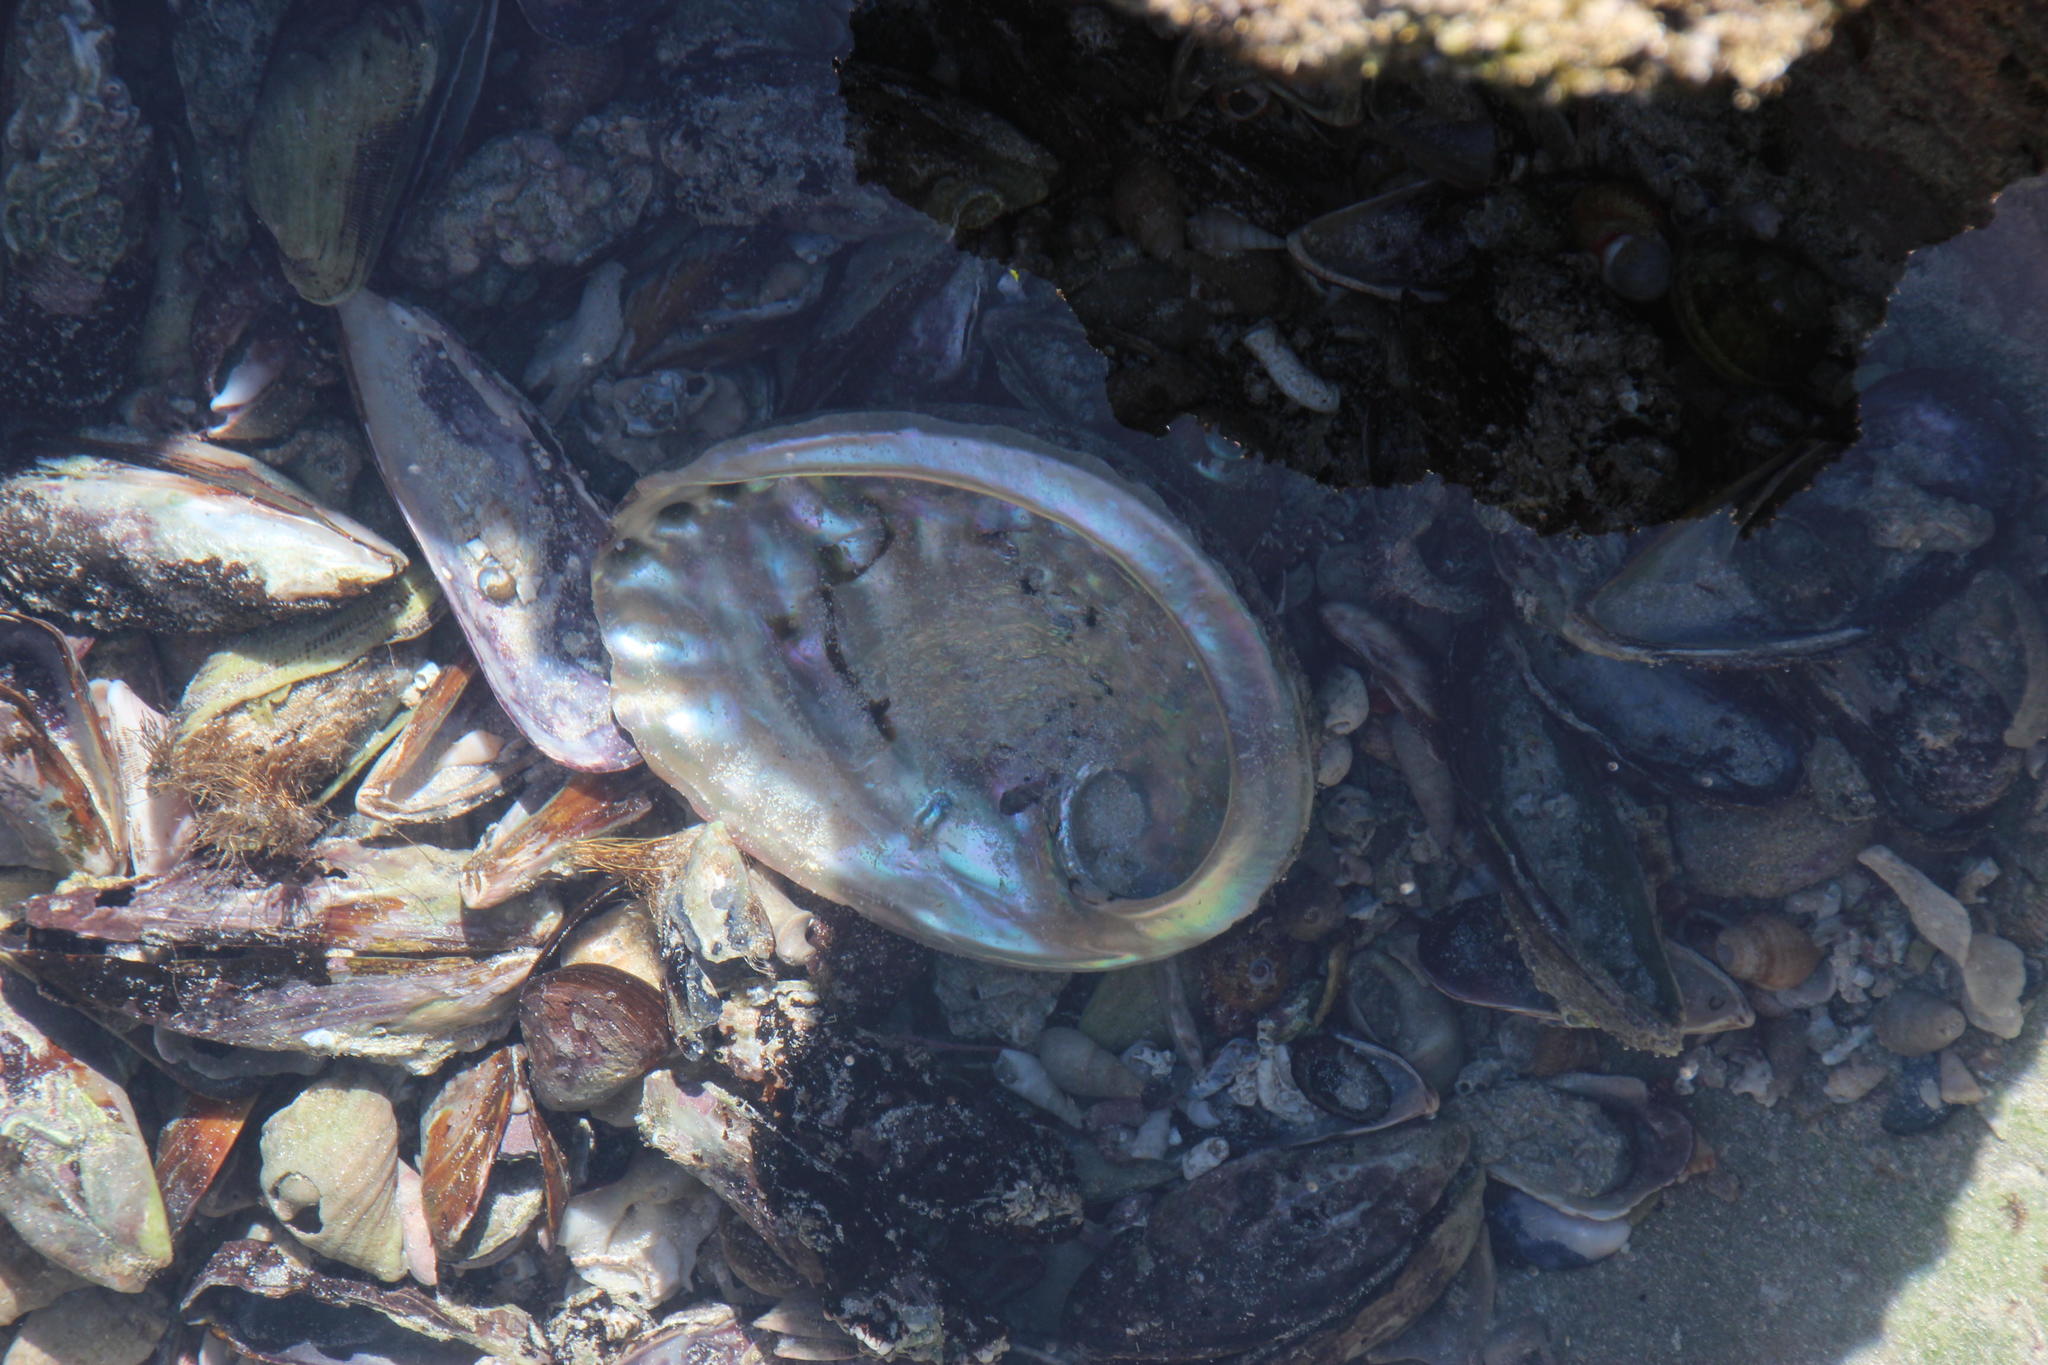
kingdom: Animalia
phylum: Mollusca
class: Gastropoda
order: Lepetellida
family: Haliotidae
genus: Haliotis
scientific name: Haliotis midae
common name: Perlemoen
